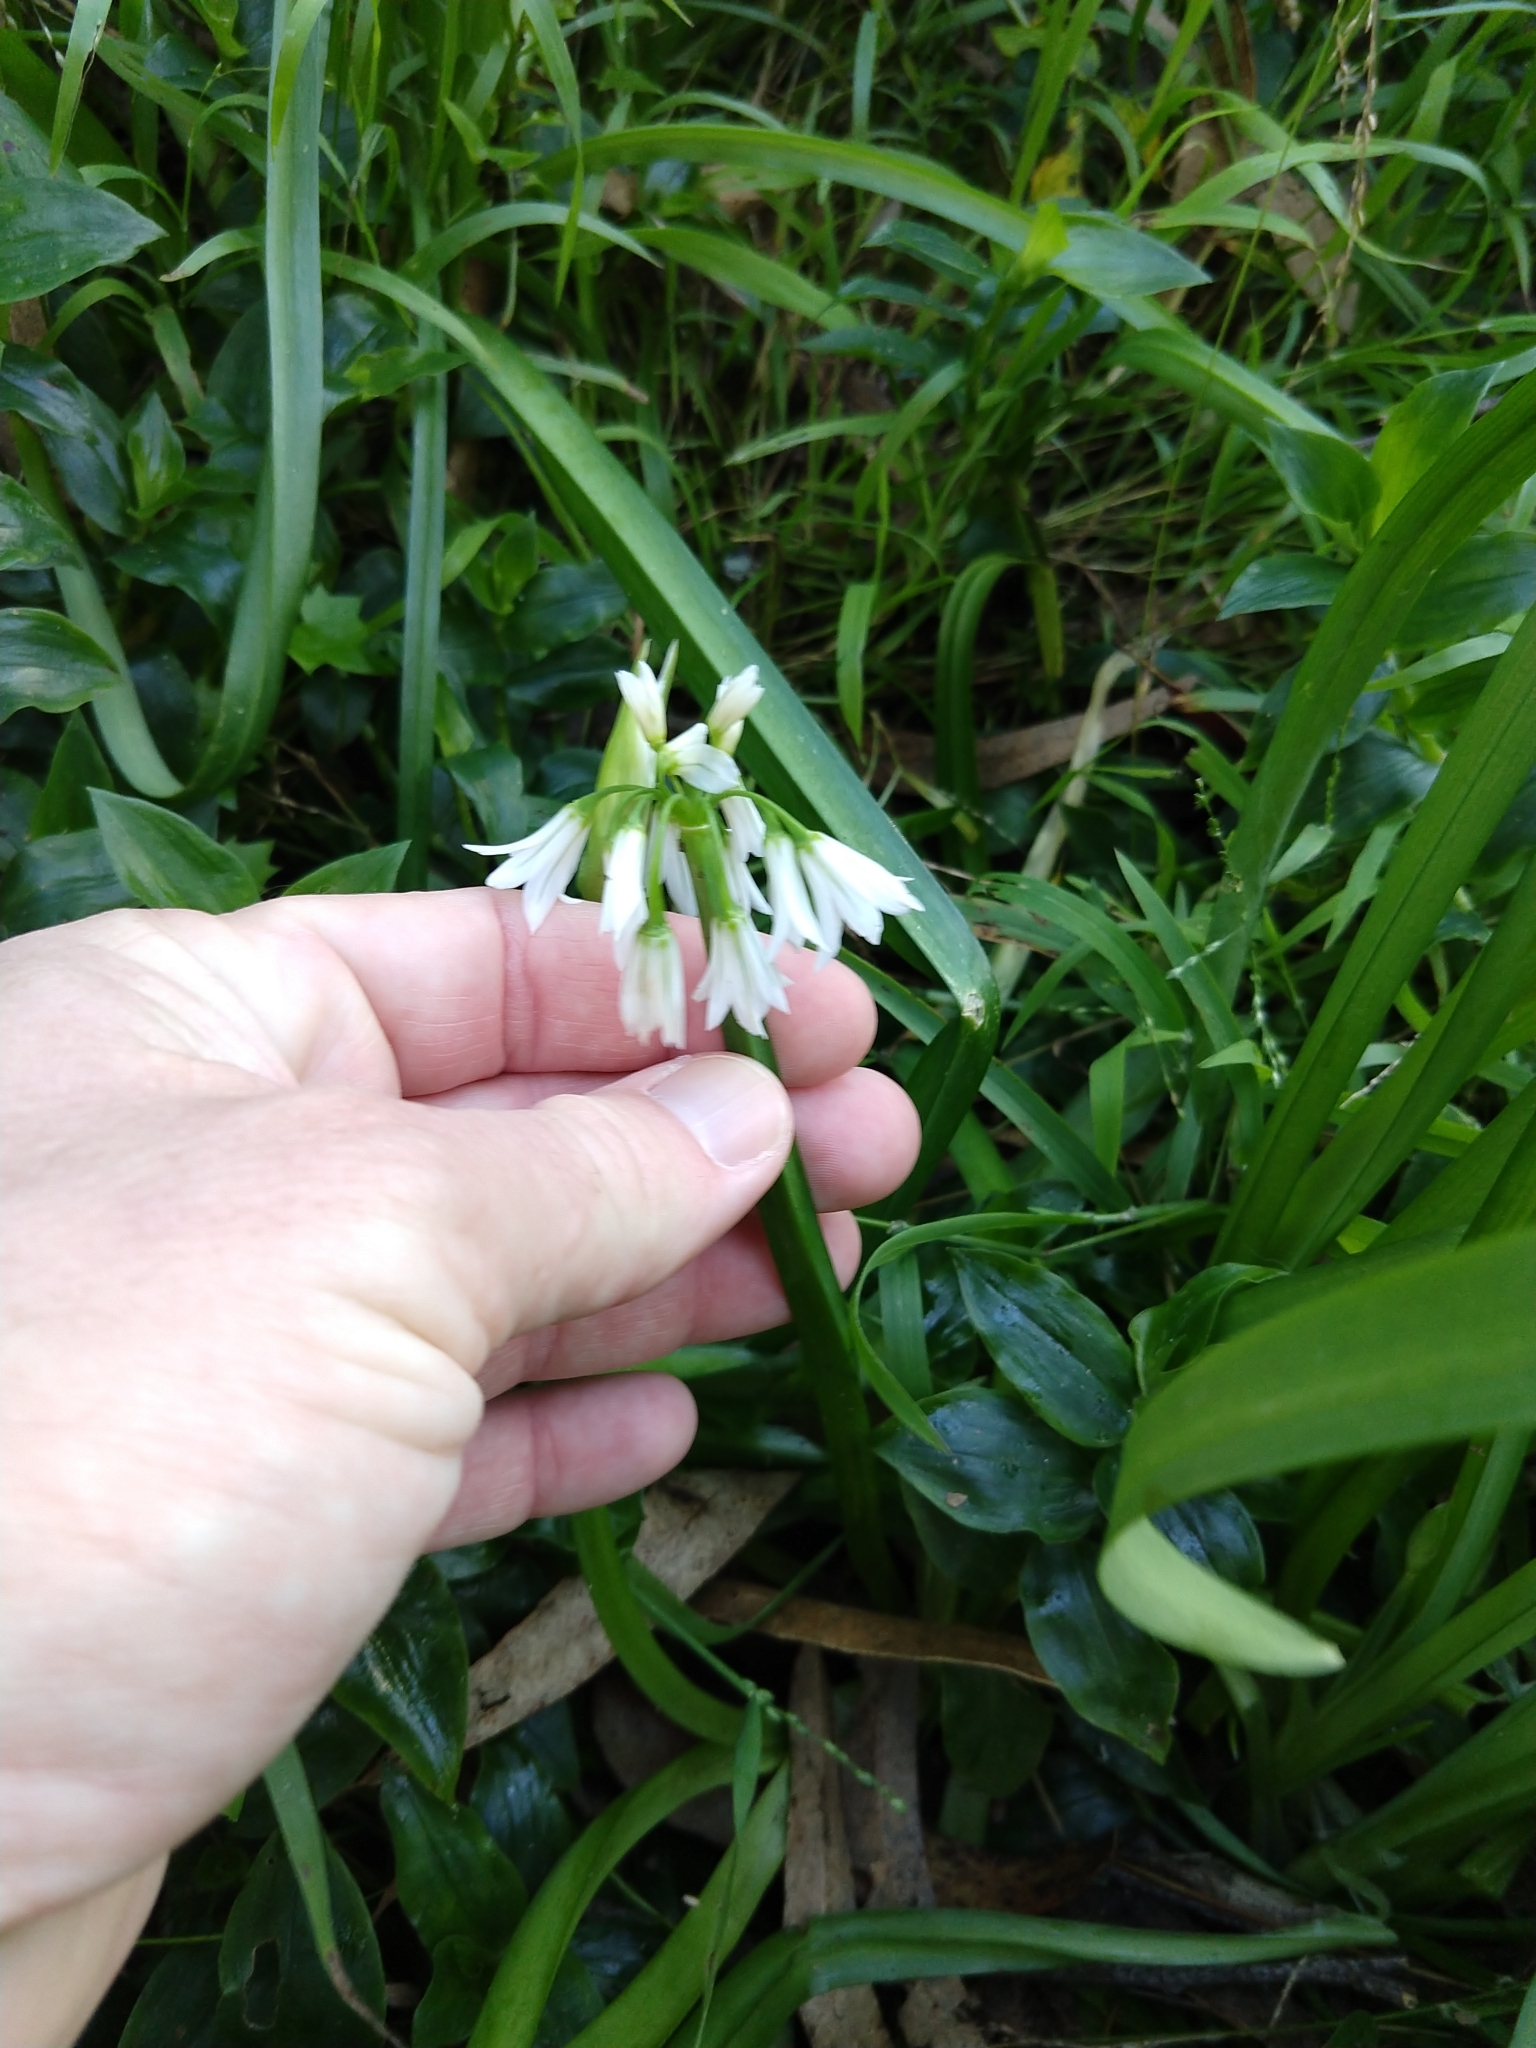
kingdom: Plantae
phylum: Tracheophyta
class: Liliopsida
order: Asparagales
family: Amaryllidaceae
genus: Allium
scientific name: Allium triquetrum
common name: Three-cornered garlic
